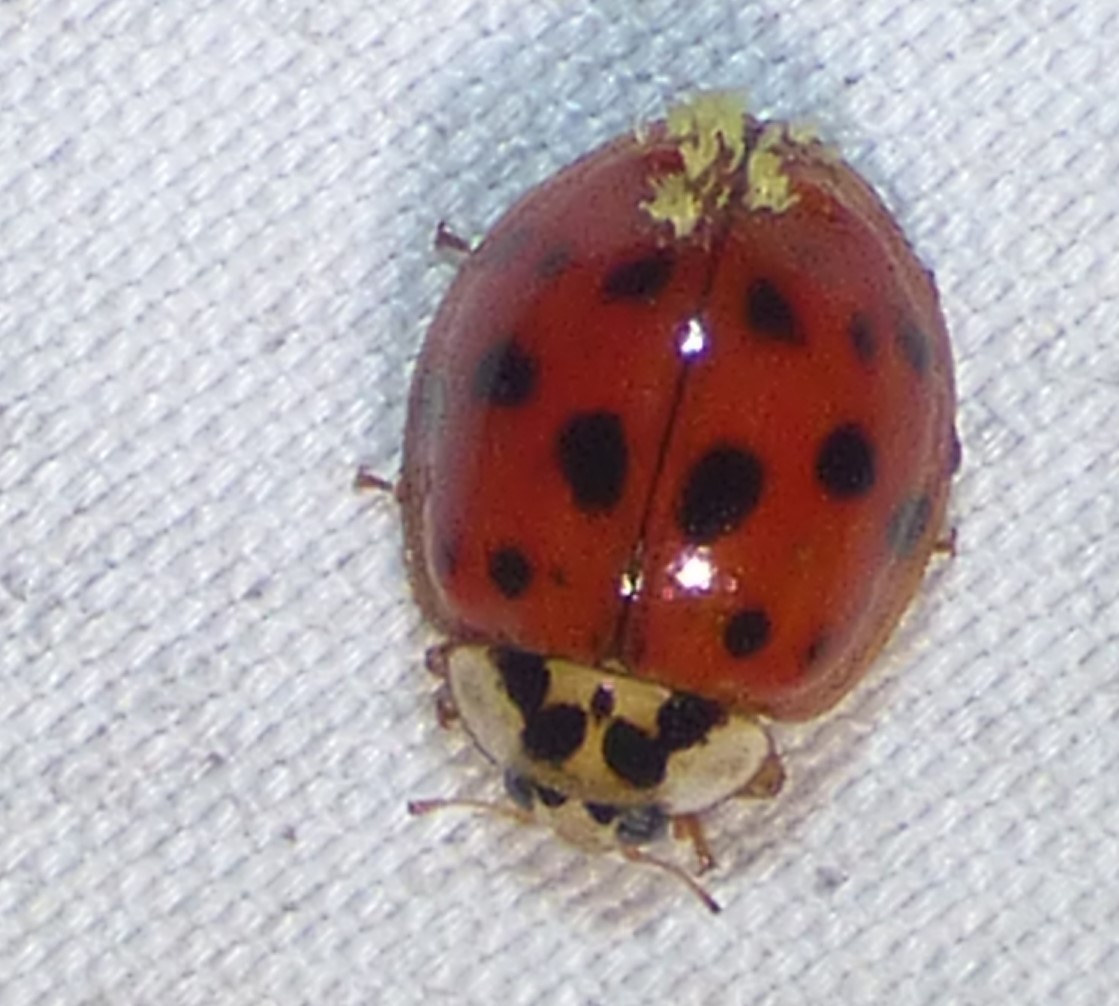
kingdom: Fungi
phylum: Ascomycota
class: Laboulbeniomycetes
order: Laboulbeniales
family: Laboulbeniaceae
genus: Hesperomyces
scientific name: Hesperomyces harmoniae
